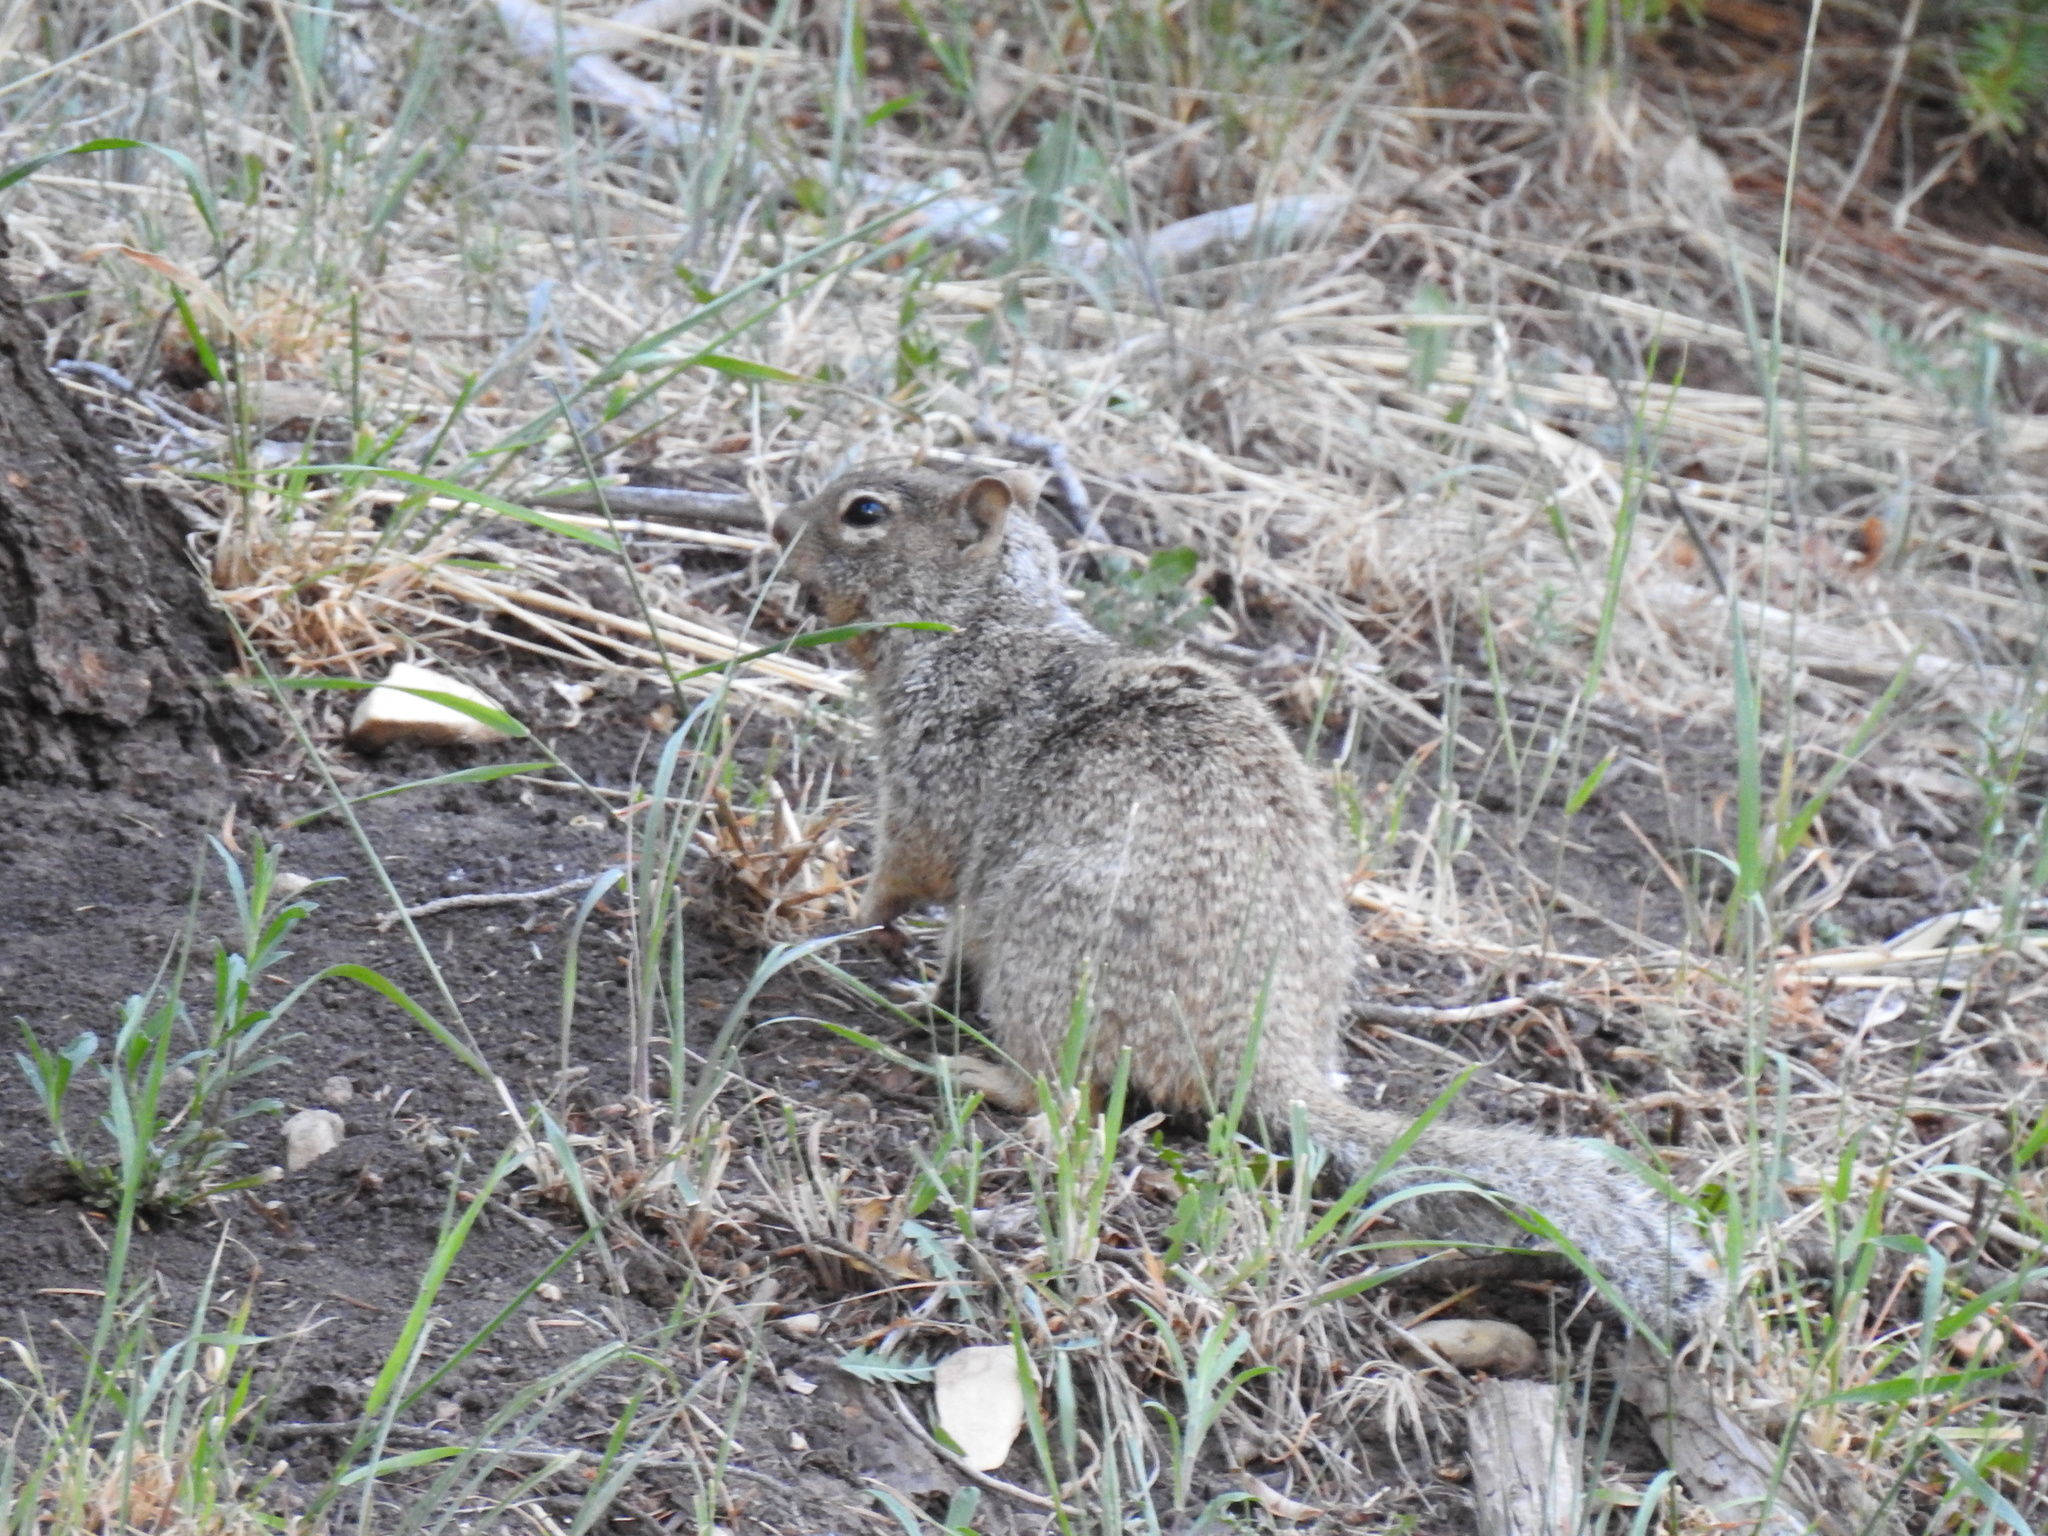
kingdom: Animalia
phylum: Chordata
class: Mammalia
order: Rodentia
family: Sciuridae
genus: Otospermophilus
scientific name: Otospermophilus variegatus
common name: Rock squirrel
